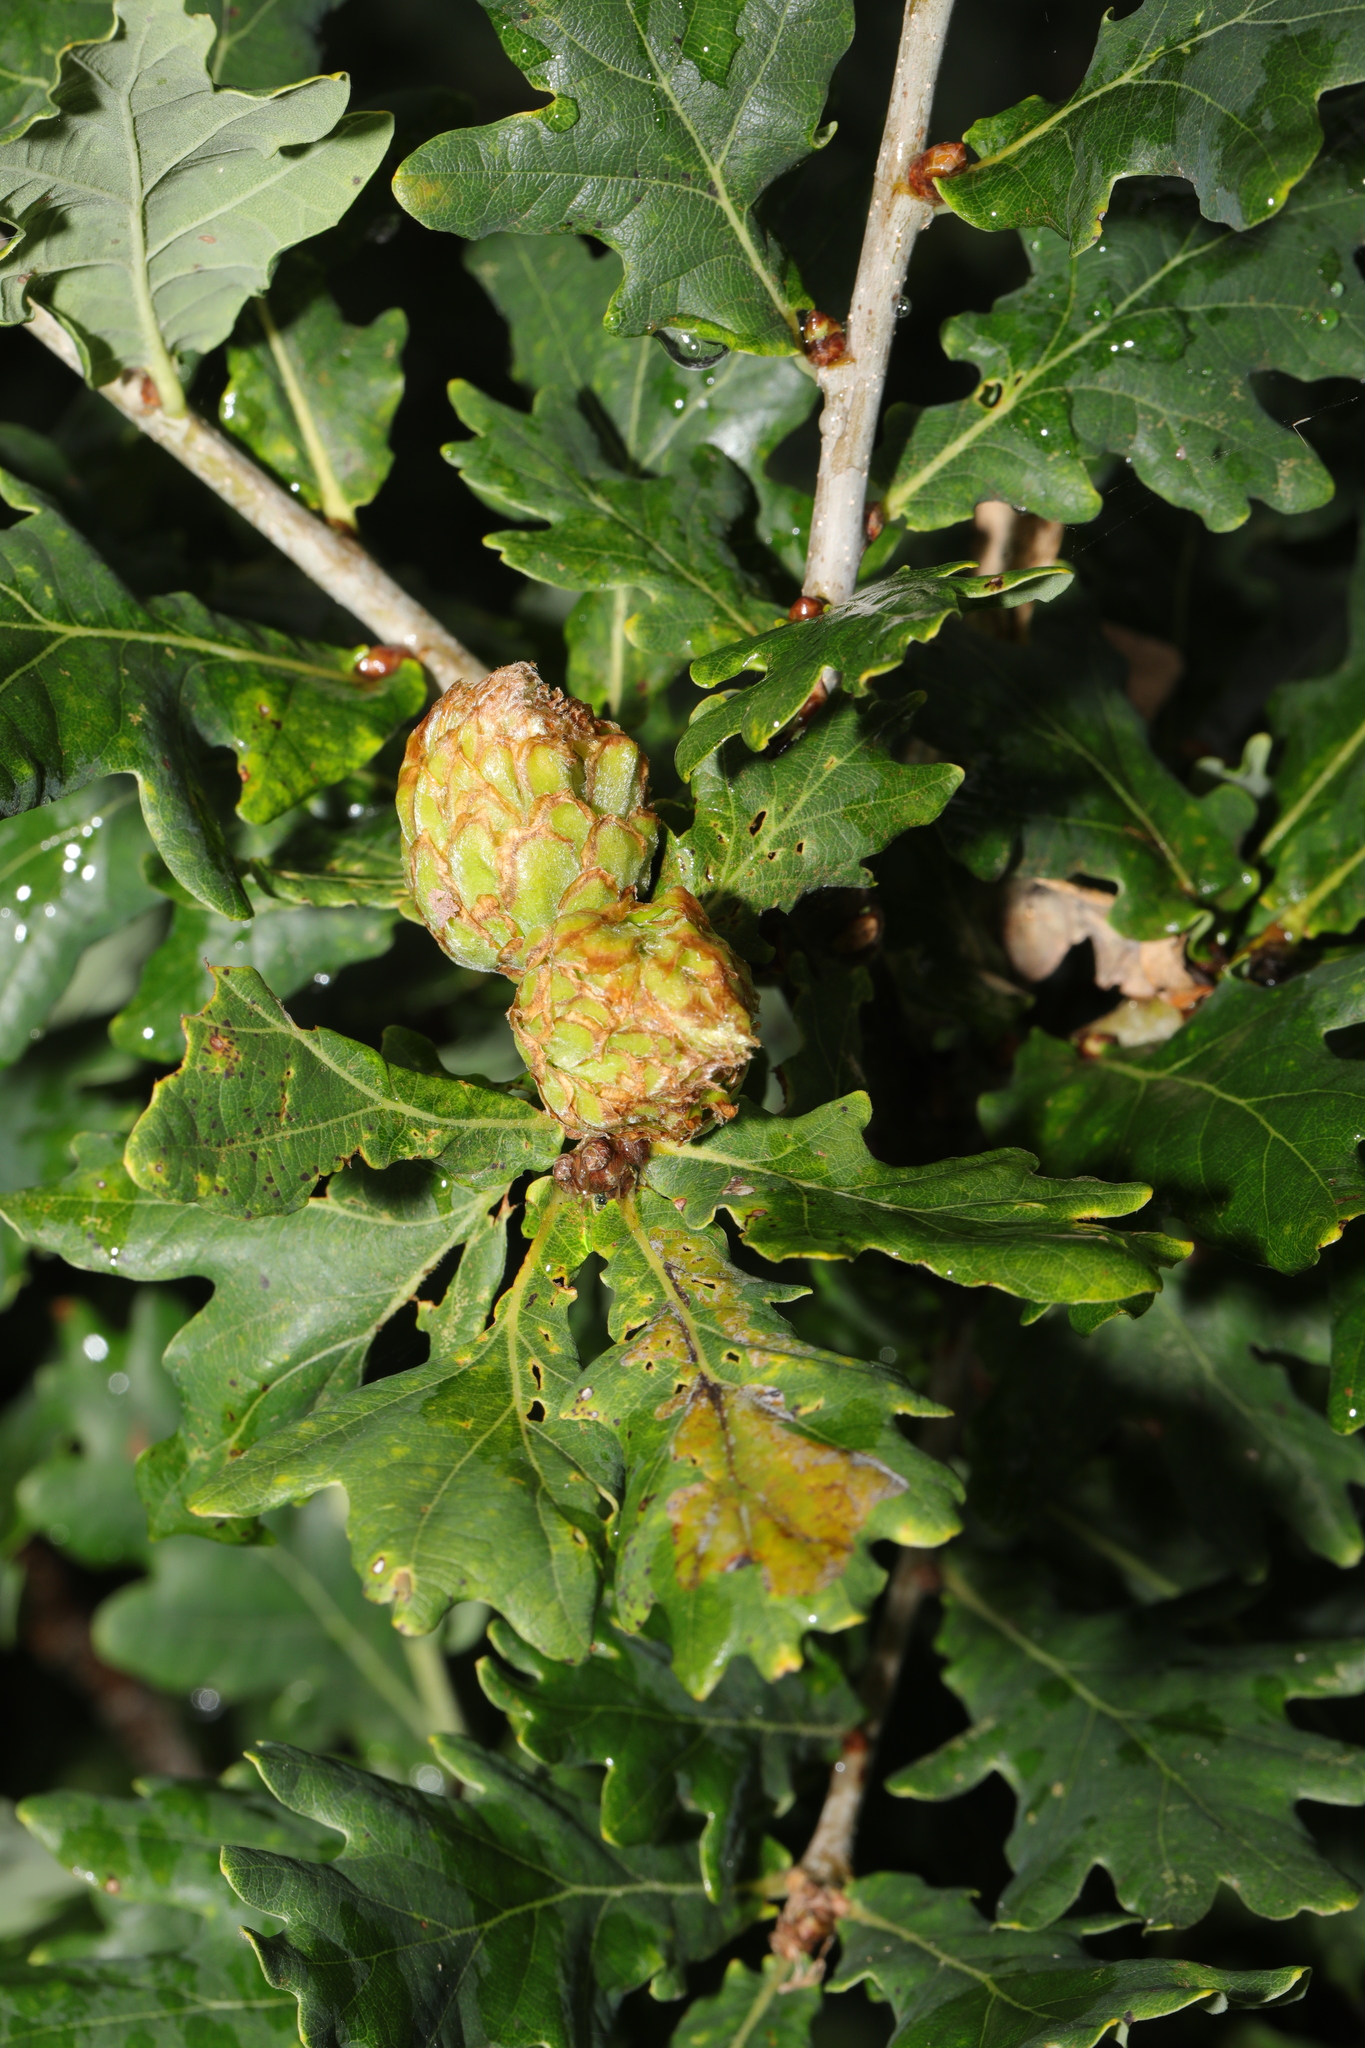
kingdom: Animalia
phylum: Arthropoda
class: Insecta
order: Hymenoptera
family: Cynipidae
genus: Andricus
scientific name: Andricus foecundatrix
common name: Artichoke gall
